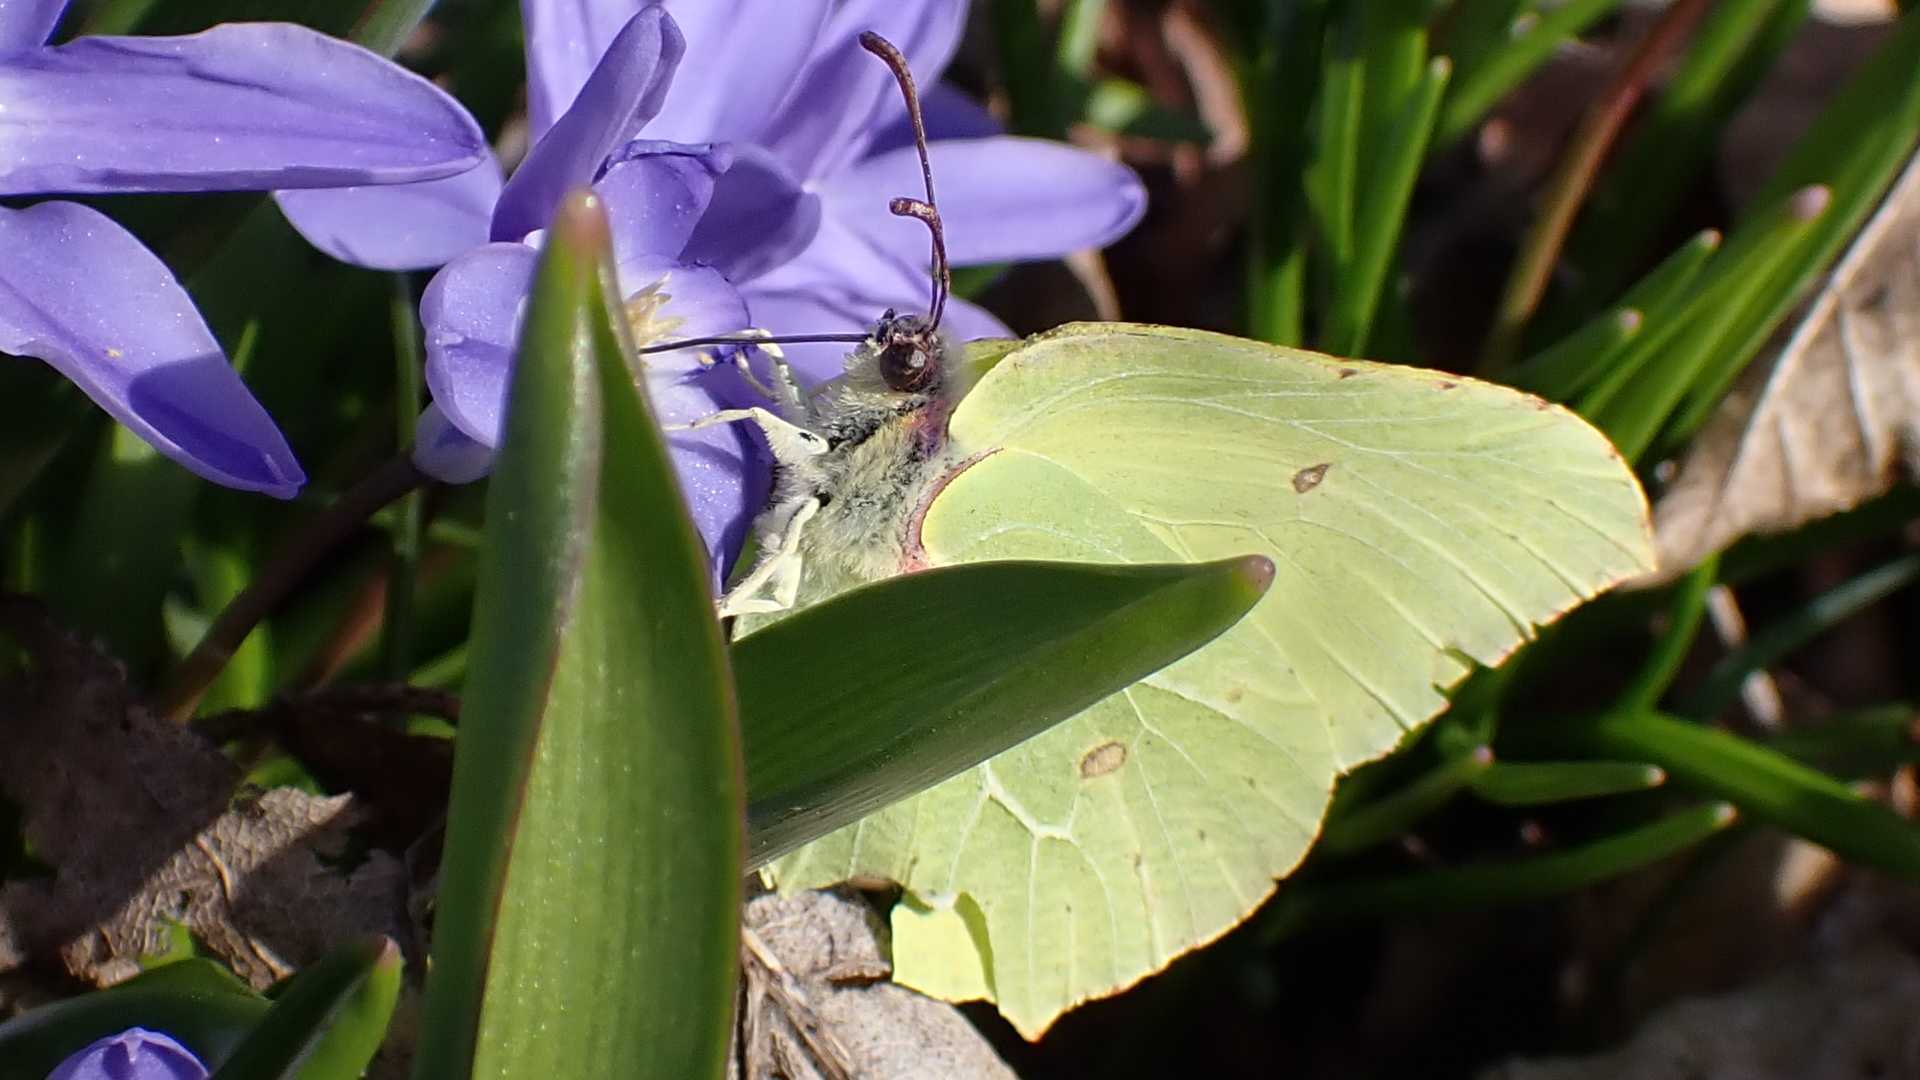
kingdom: Animalia
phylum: Arthropoda
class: Insecta
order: Lepidoptera
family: Pieridae
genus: Gonepteryx
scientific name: Gonepteryx rhamni
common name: Brimstone
